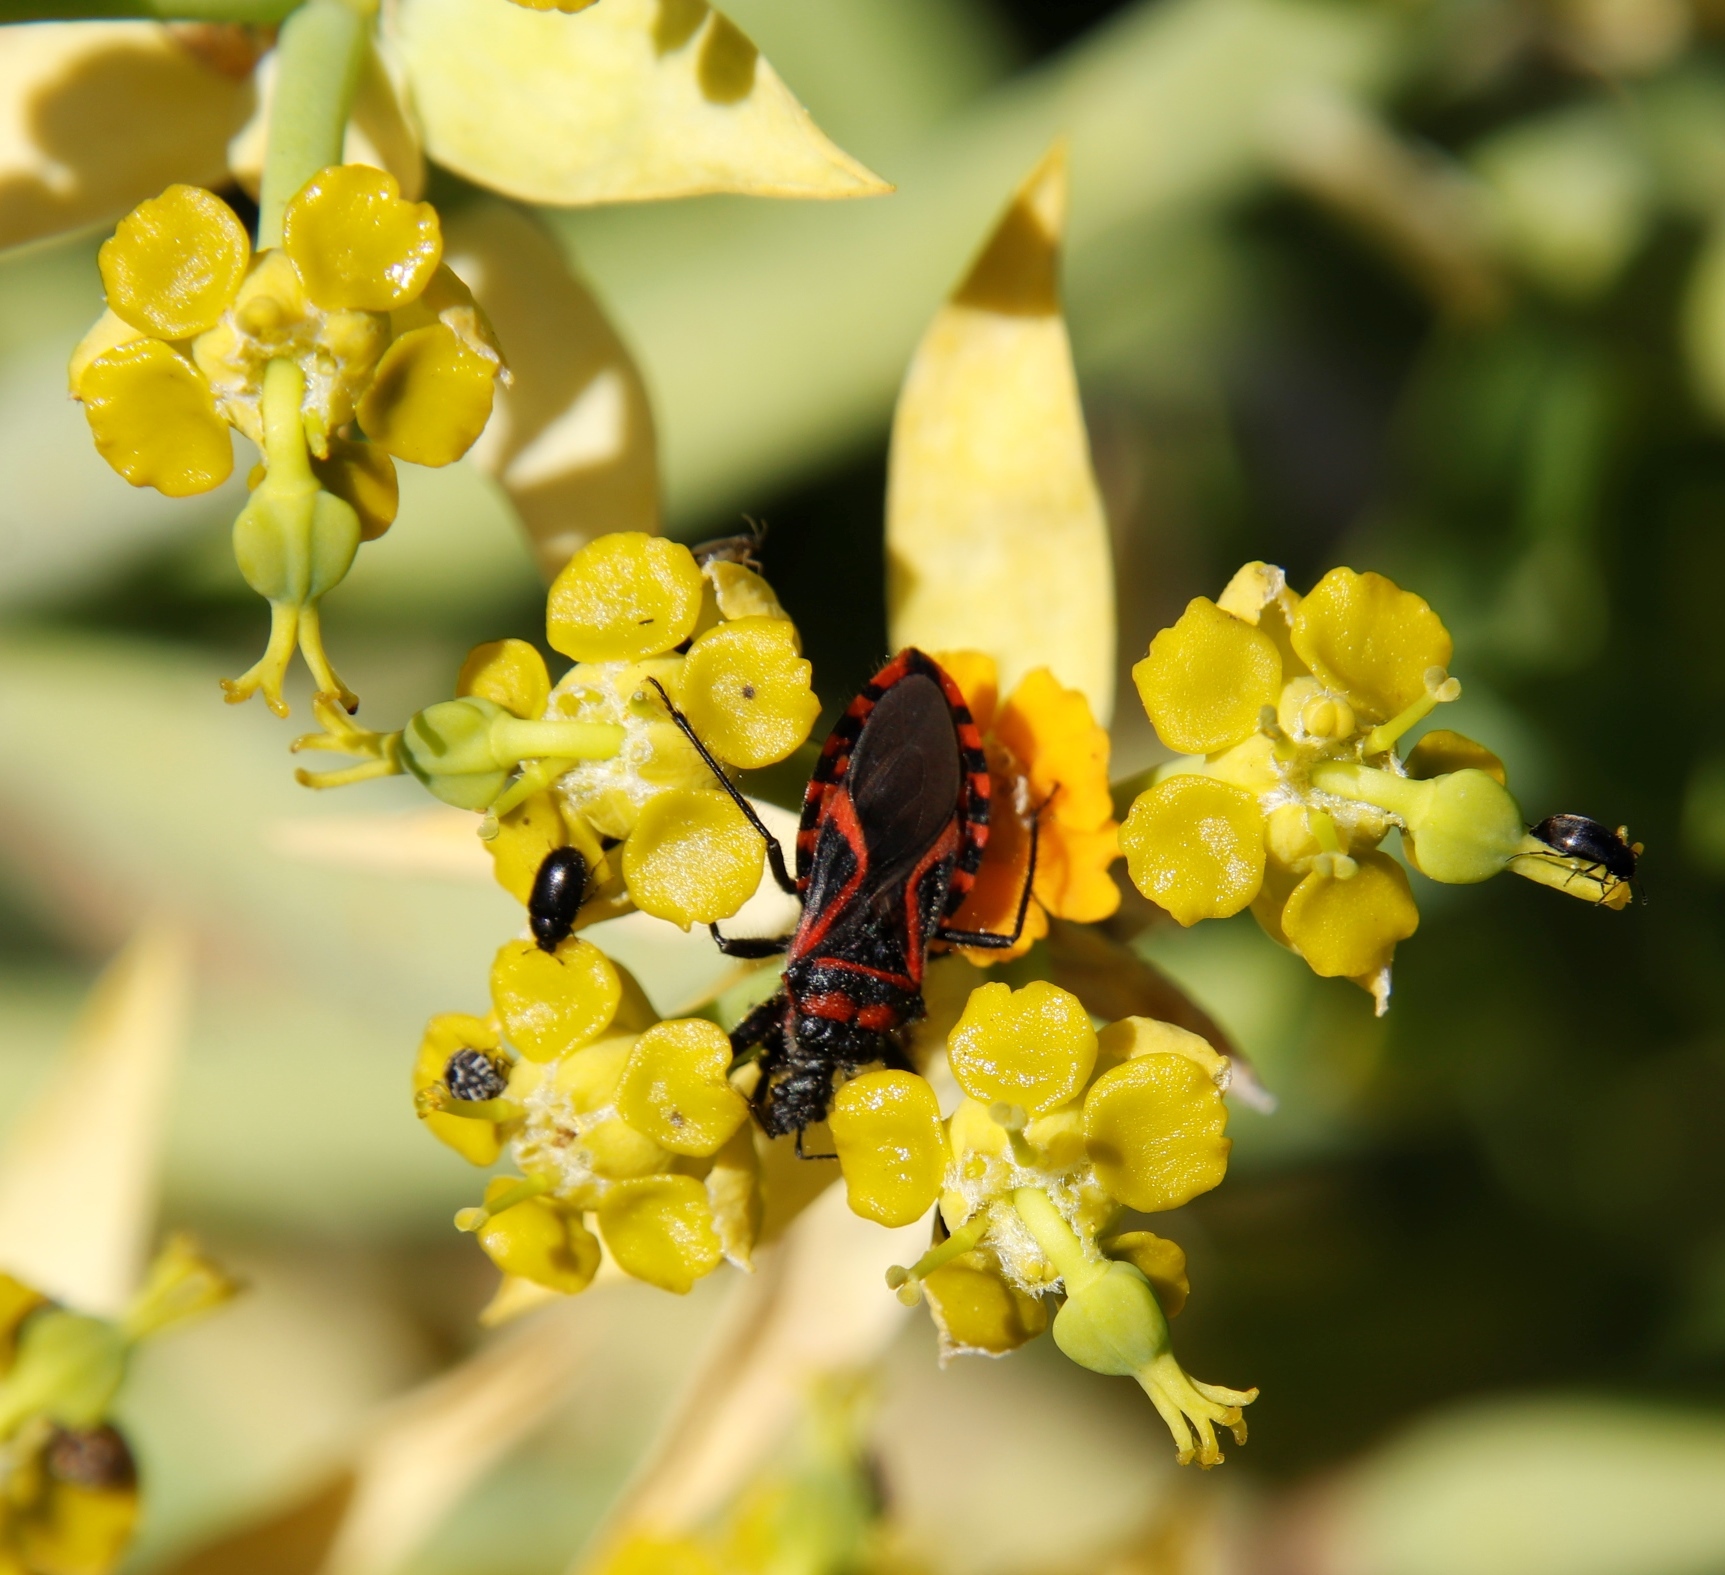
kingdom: Plantae
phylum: Tracheophyta
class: Magnoliopsida
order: Malpighiales
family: Euphorbiaceae
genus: Euphorbia
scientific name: Euphorbia mauritanica
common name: Jackal's-food
